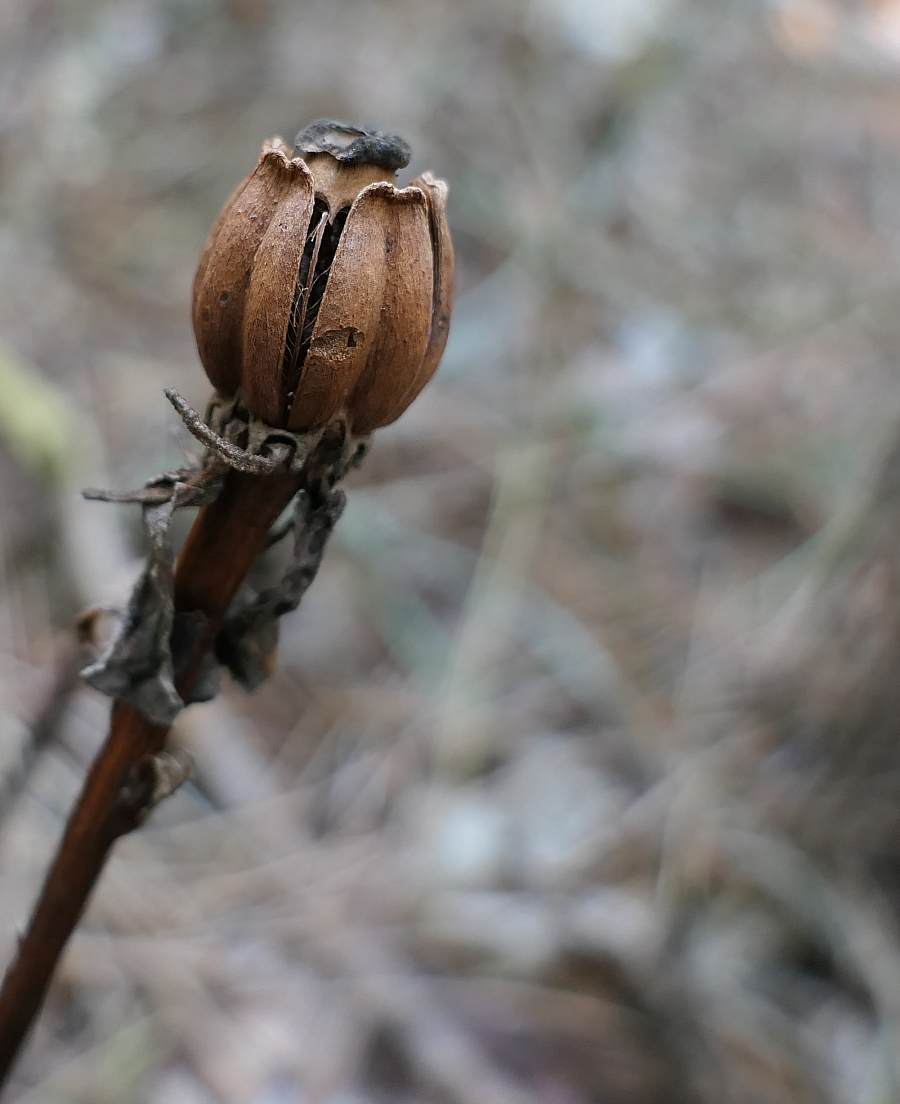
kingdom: Plantae
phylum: Tracheophyta
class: Magnoliopsida
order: Ericales
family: Ericaceae
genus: Monotropa
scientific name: Monotropa uniflora
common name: Convulsion root
